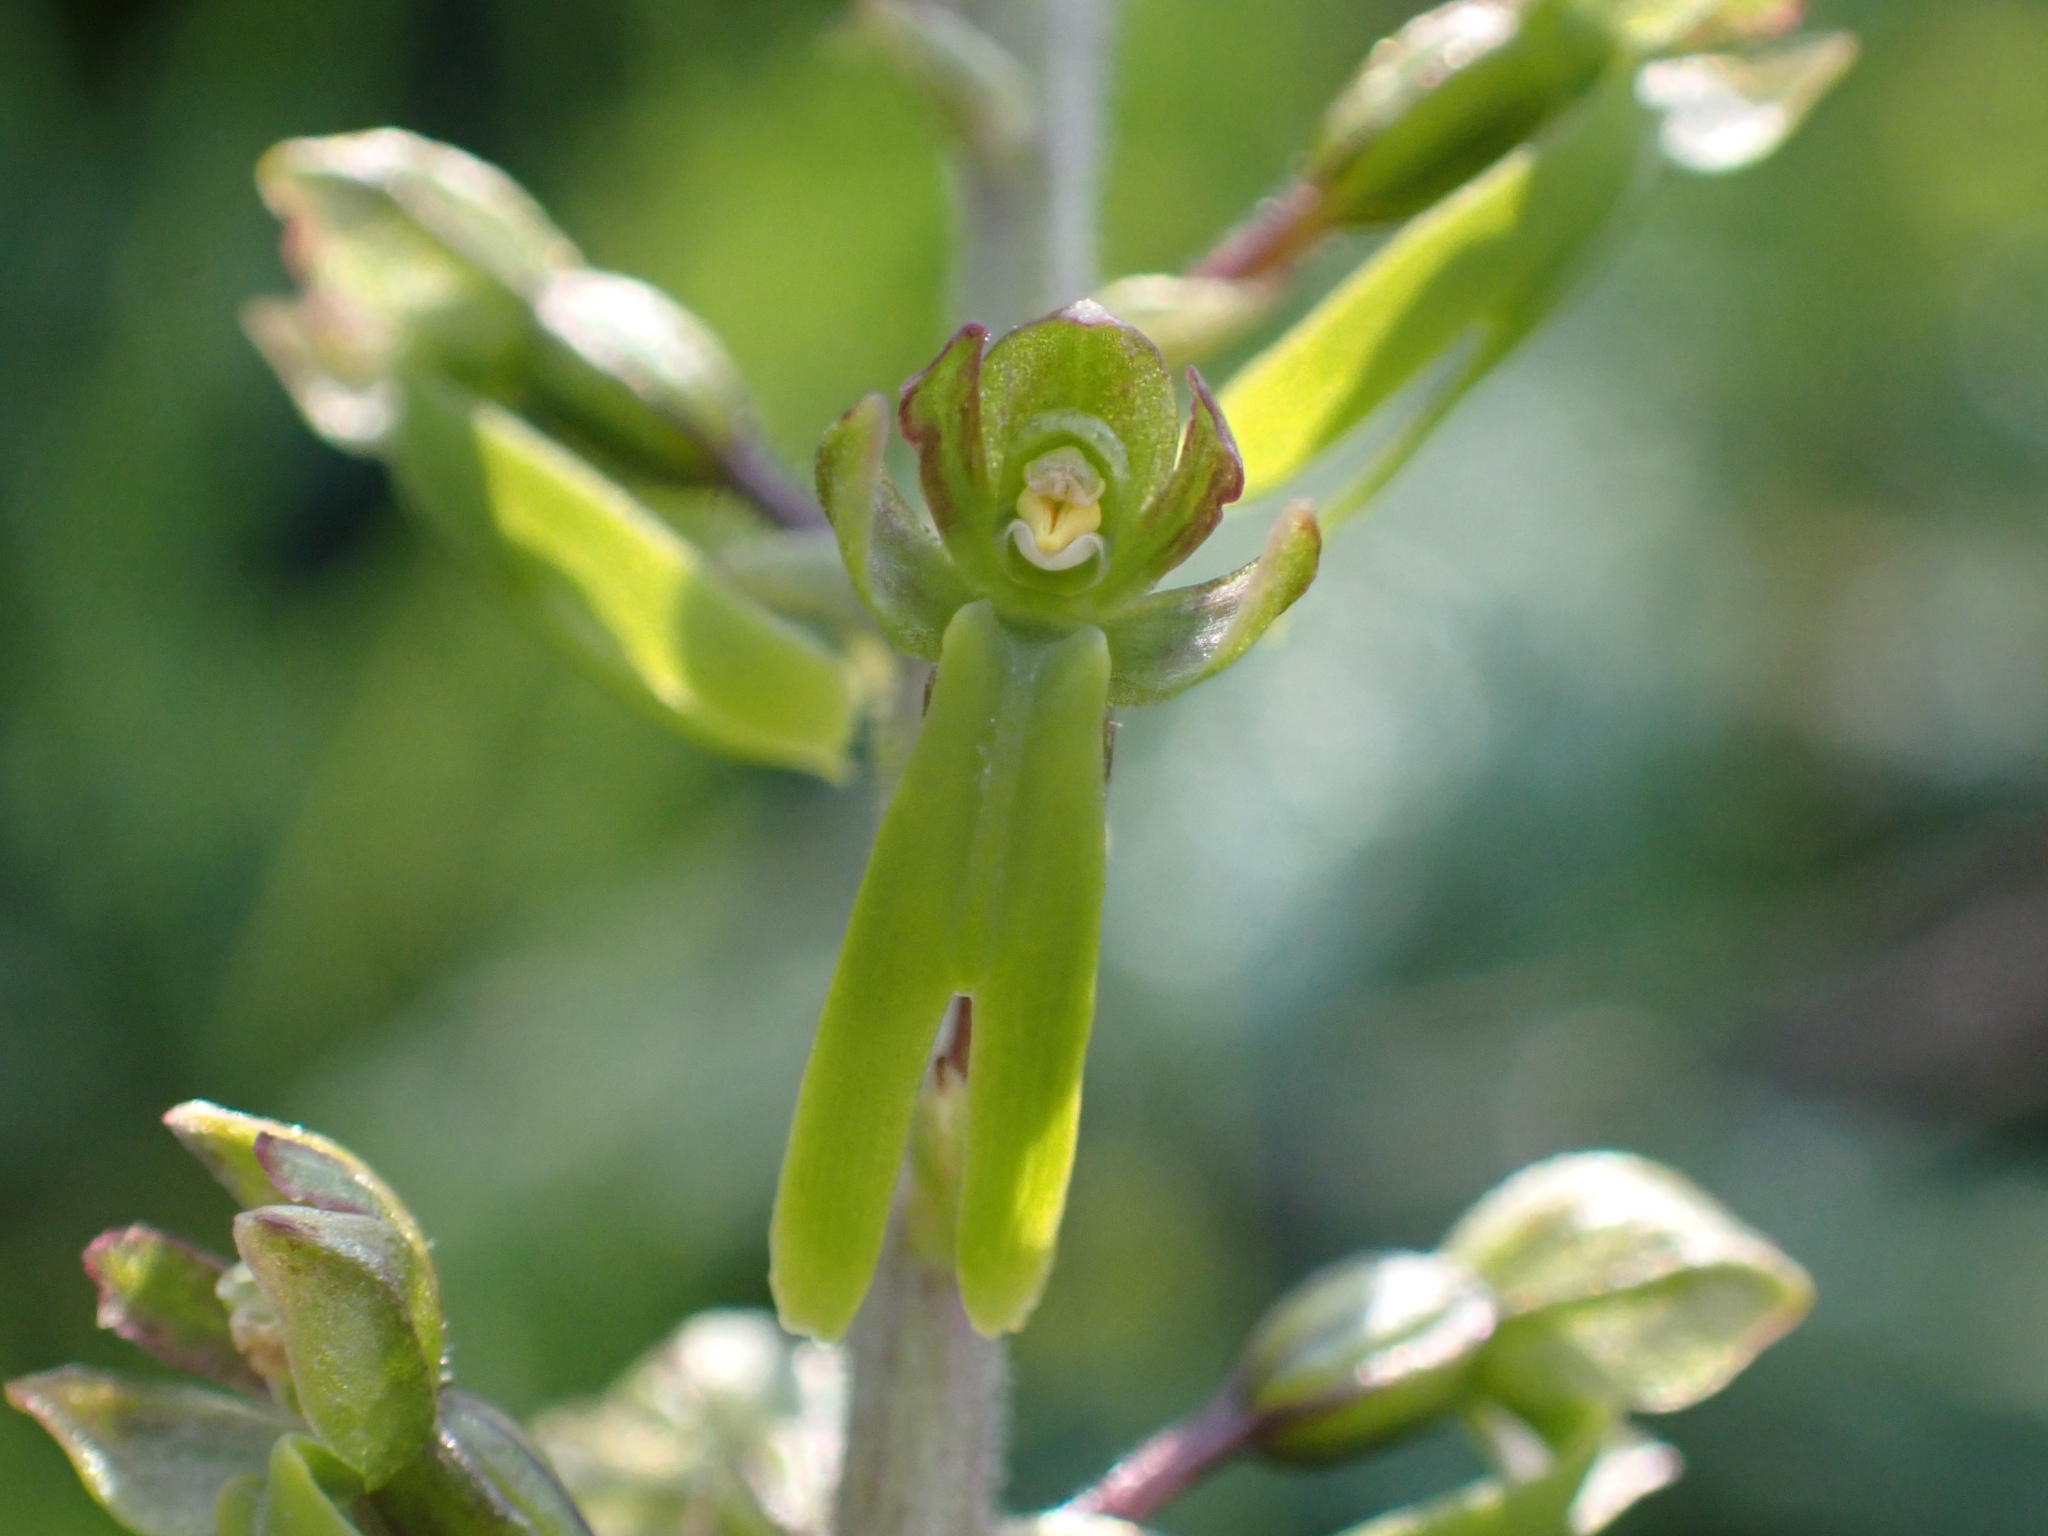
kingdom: Plantae
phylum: Tracheophyta
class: Liliopsida
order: Asparagales
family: Orchidaceae
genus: Neottia
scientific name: Neottia ovata
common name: Common twayblade
